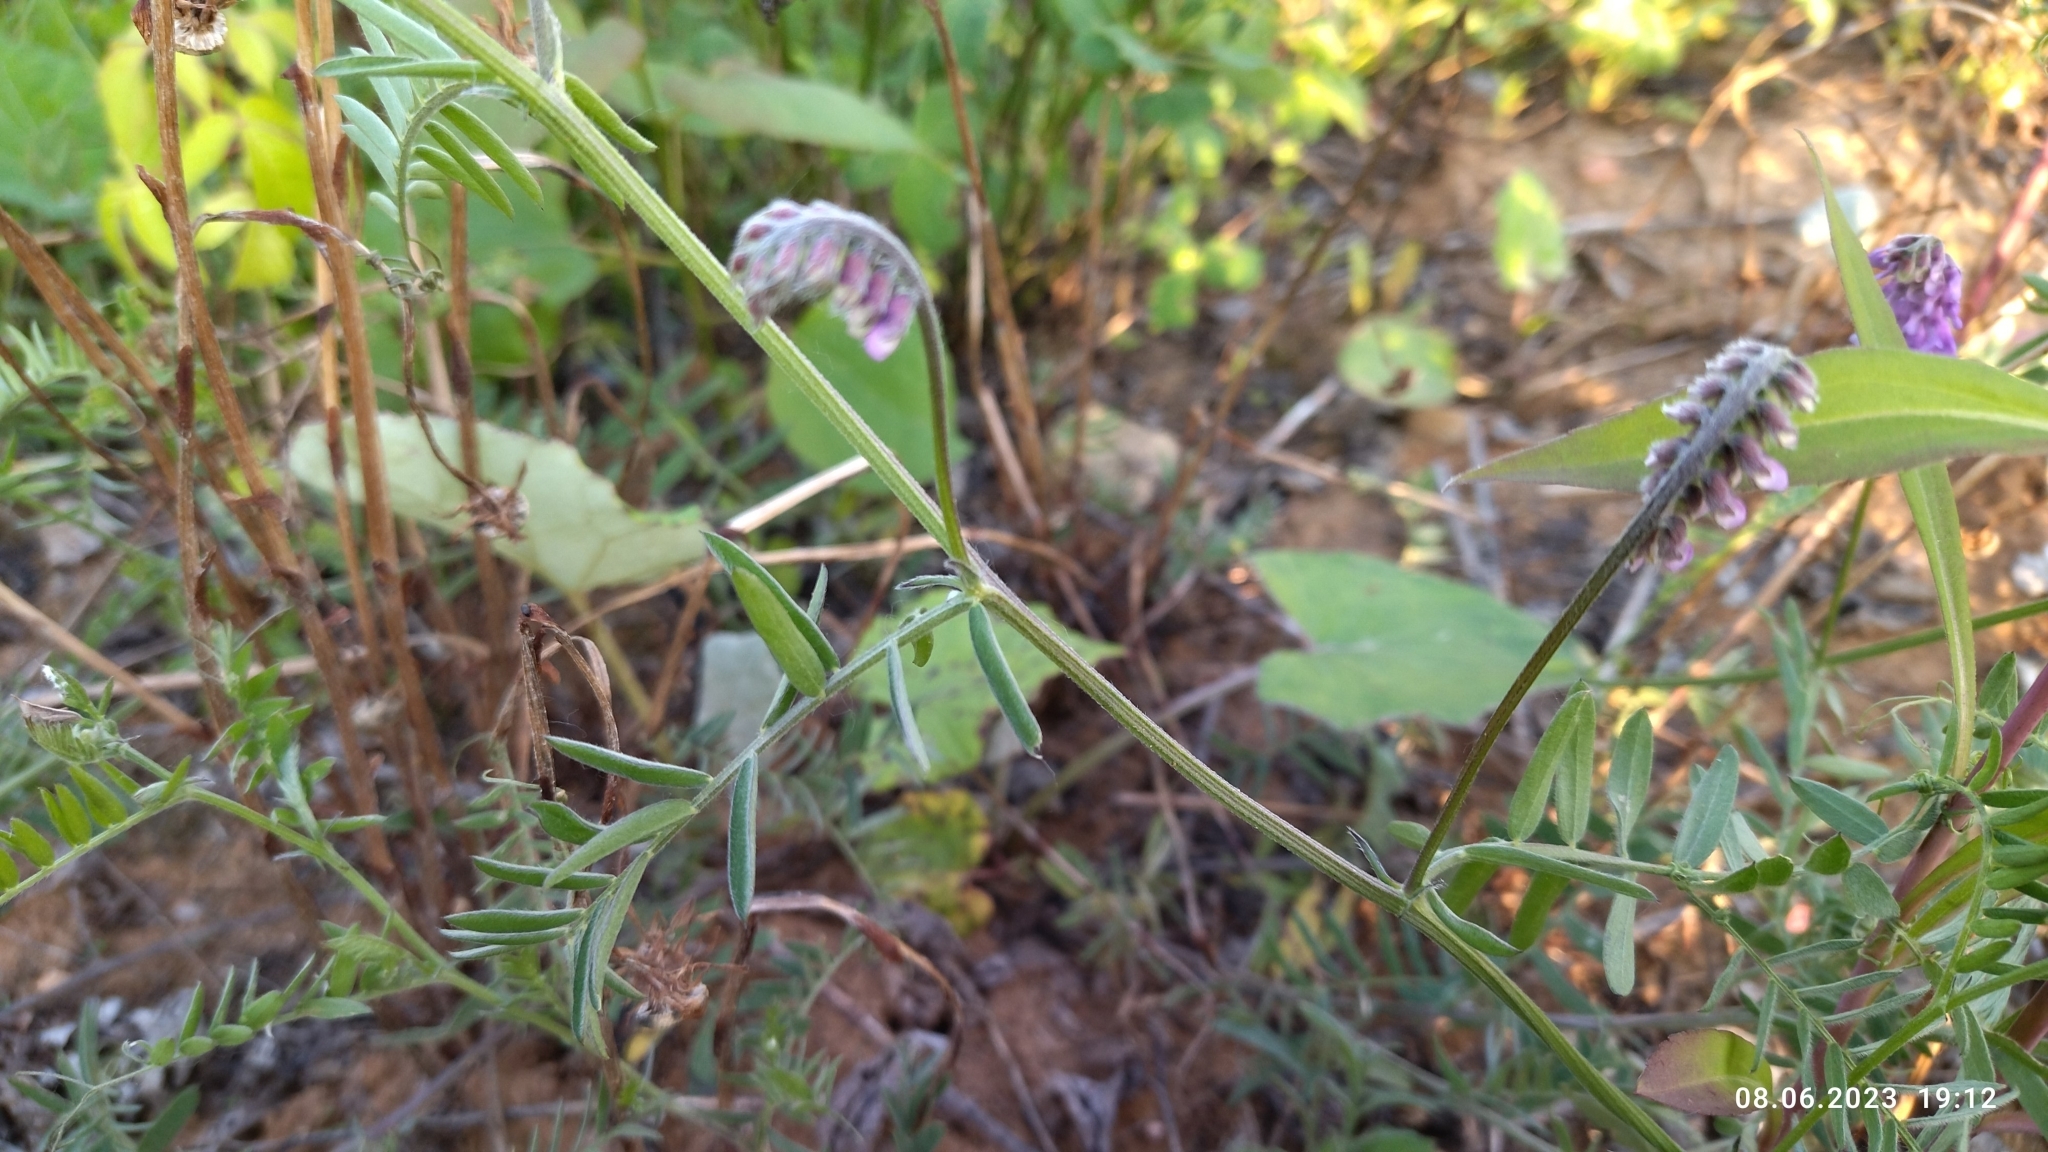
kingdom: Plantae
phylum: Tracheophyta
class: Magnoliopsida
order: Fabales
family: Fabaceae
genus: Vicia
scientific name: Vicia cracca
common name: Bird vetch
